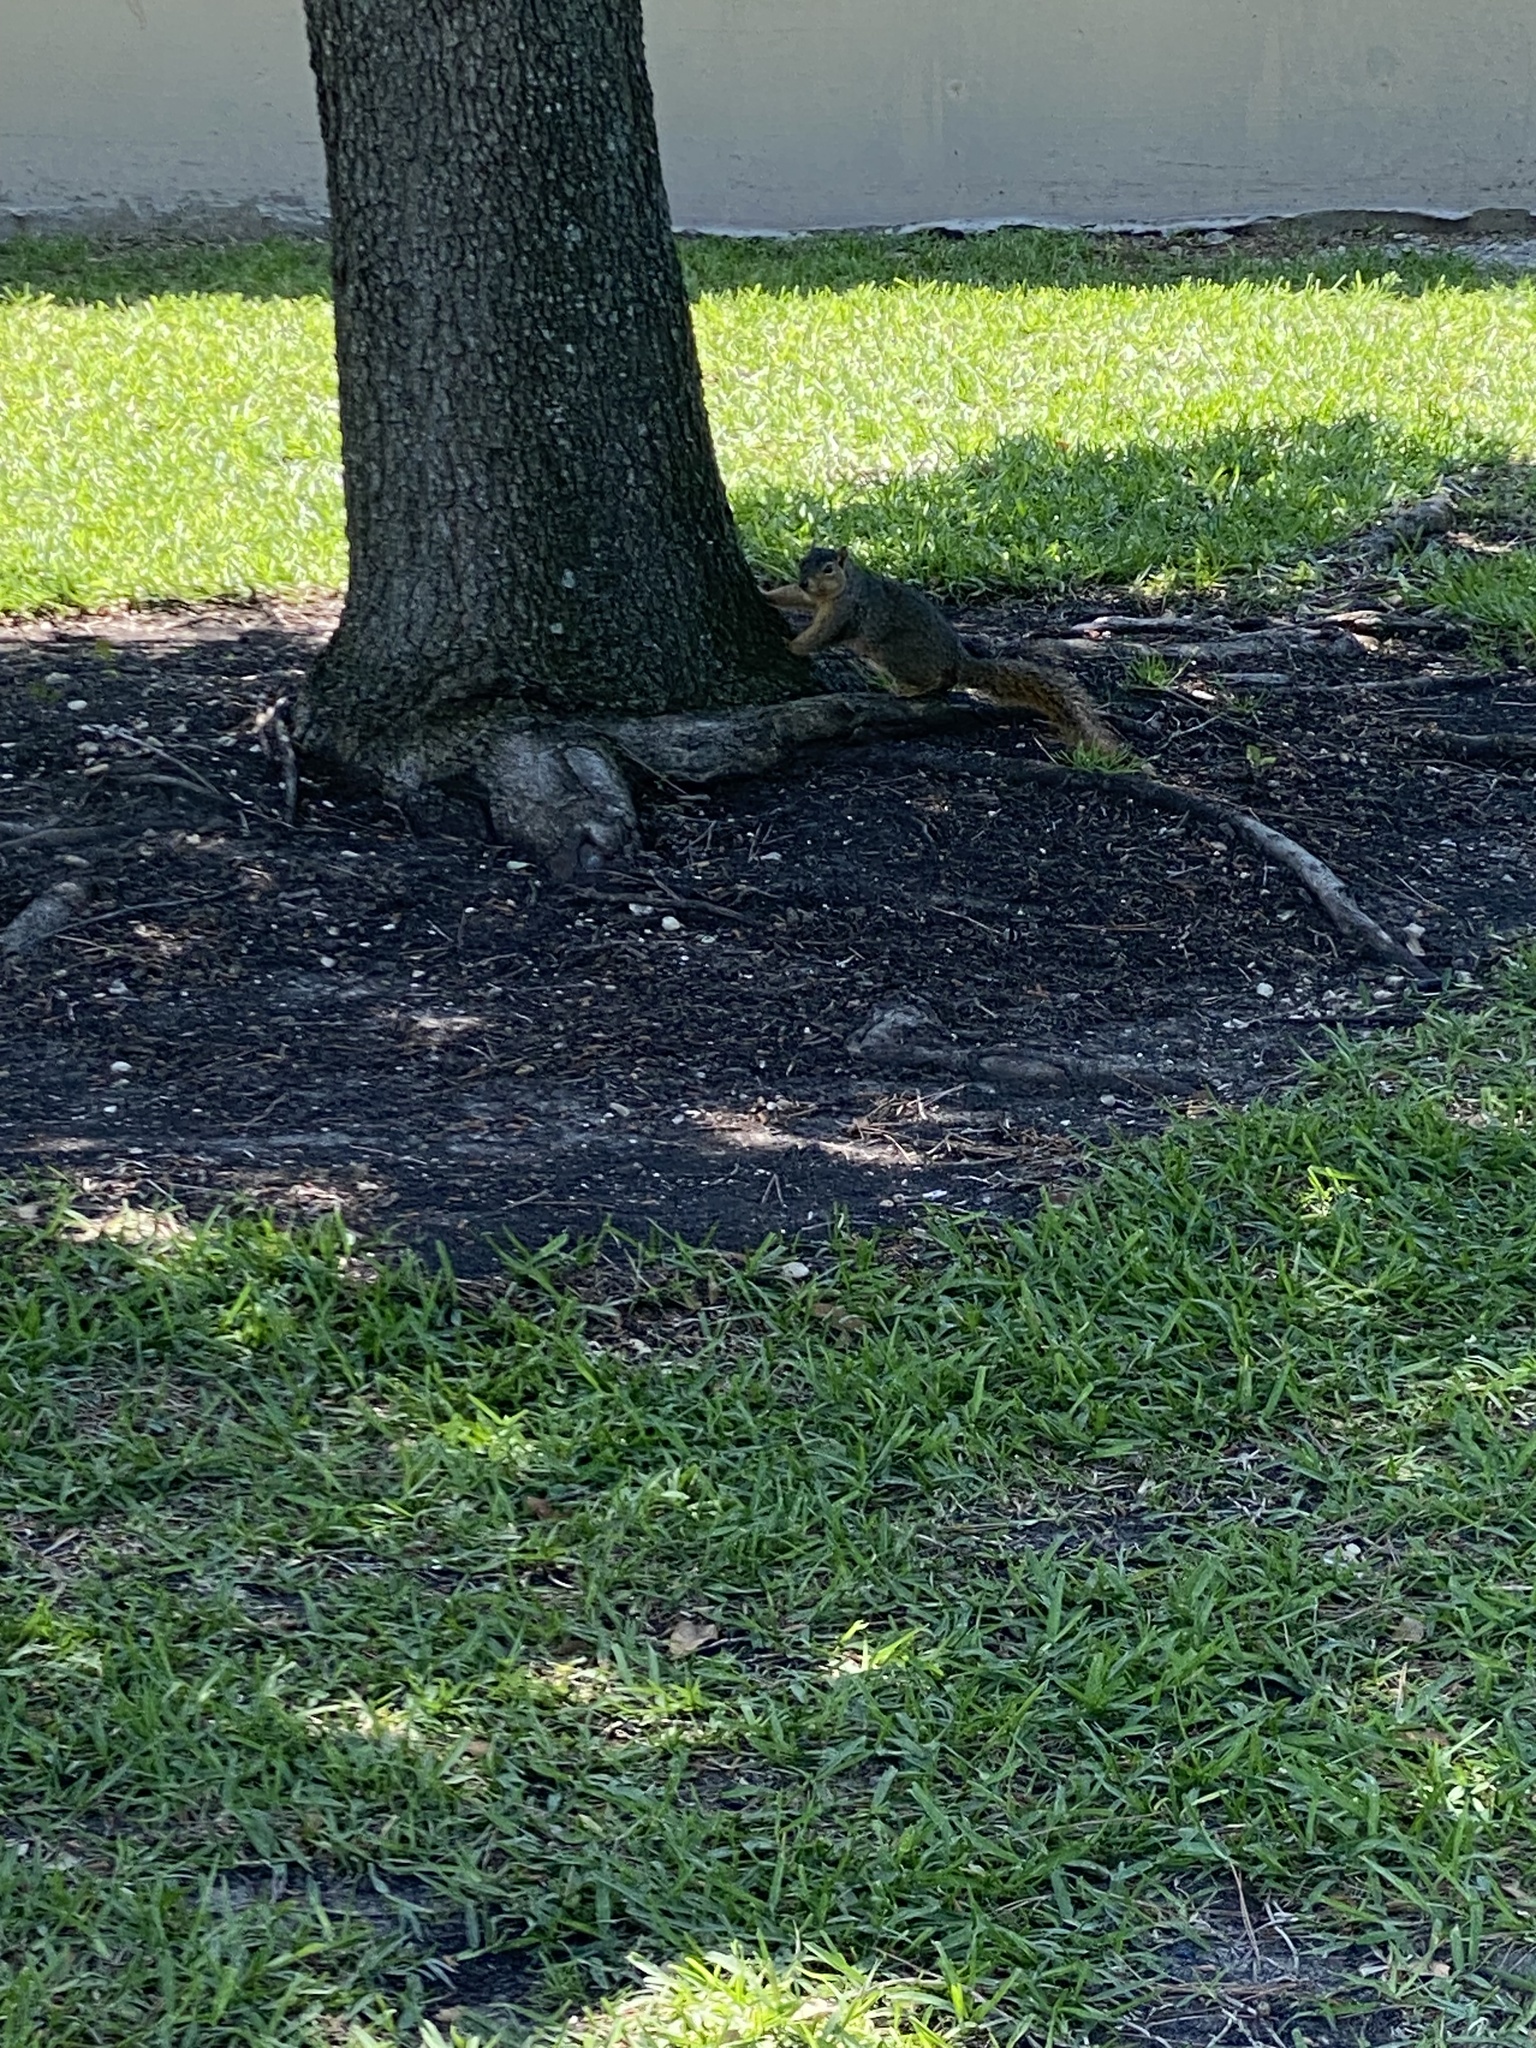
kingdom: Animalia
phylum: Chordata
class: Mammalia
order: Rodentia
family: Sciuridae
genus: Sciurus
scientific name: Sciurus niger
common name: Fox squirrel
